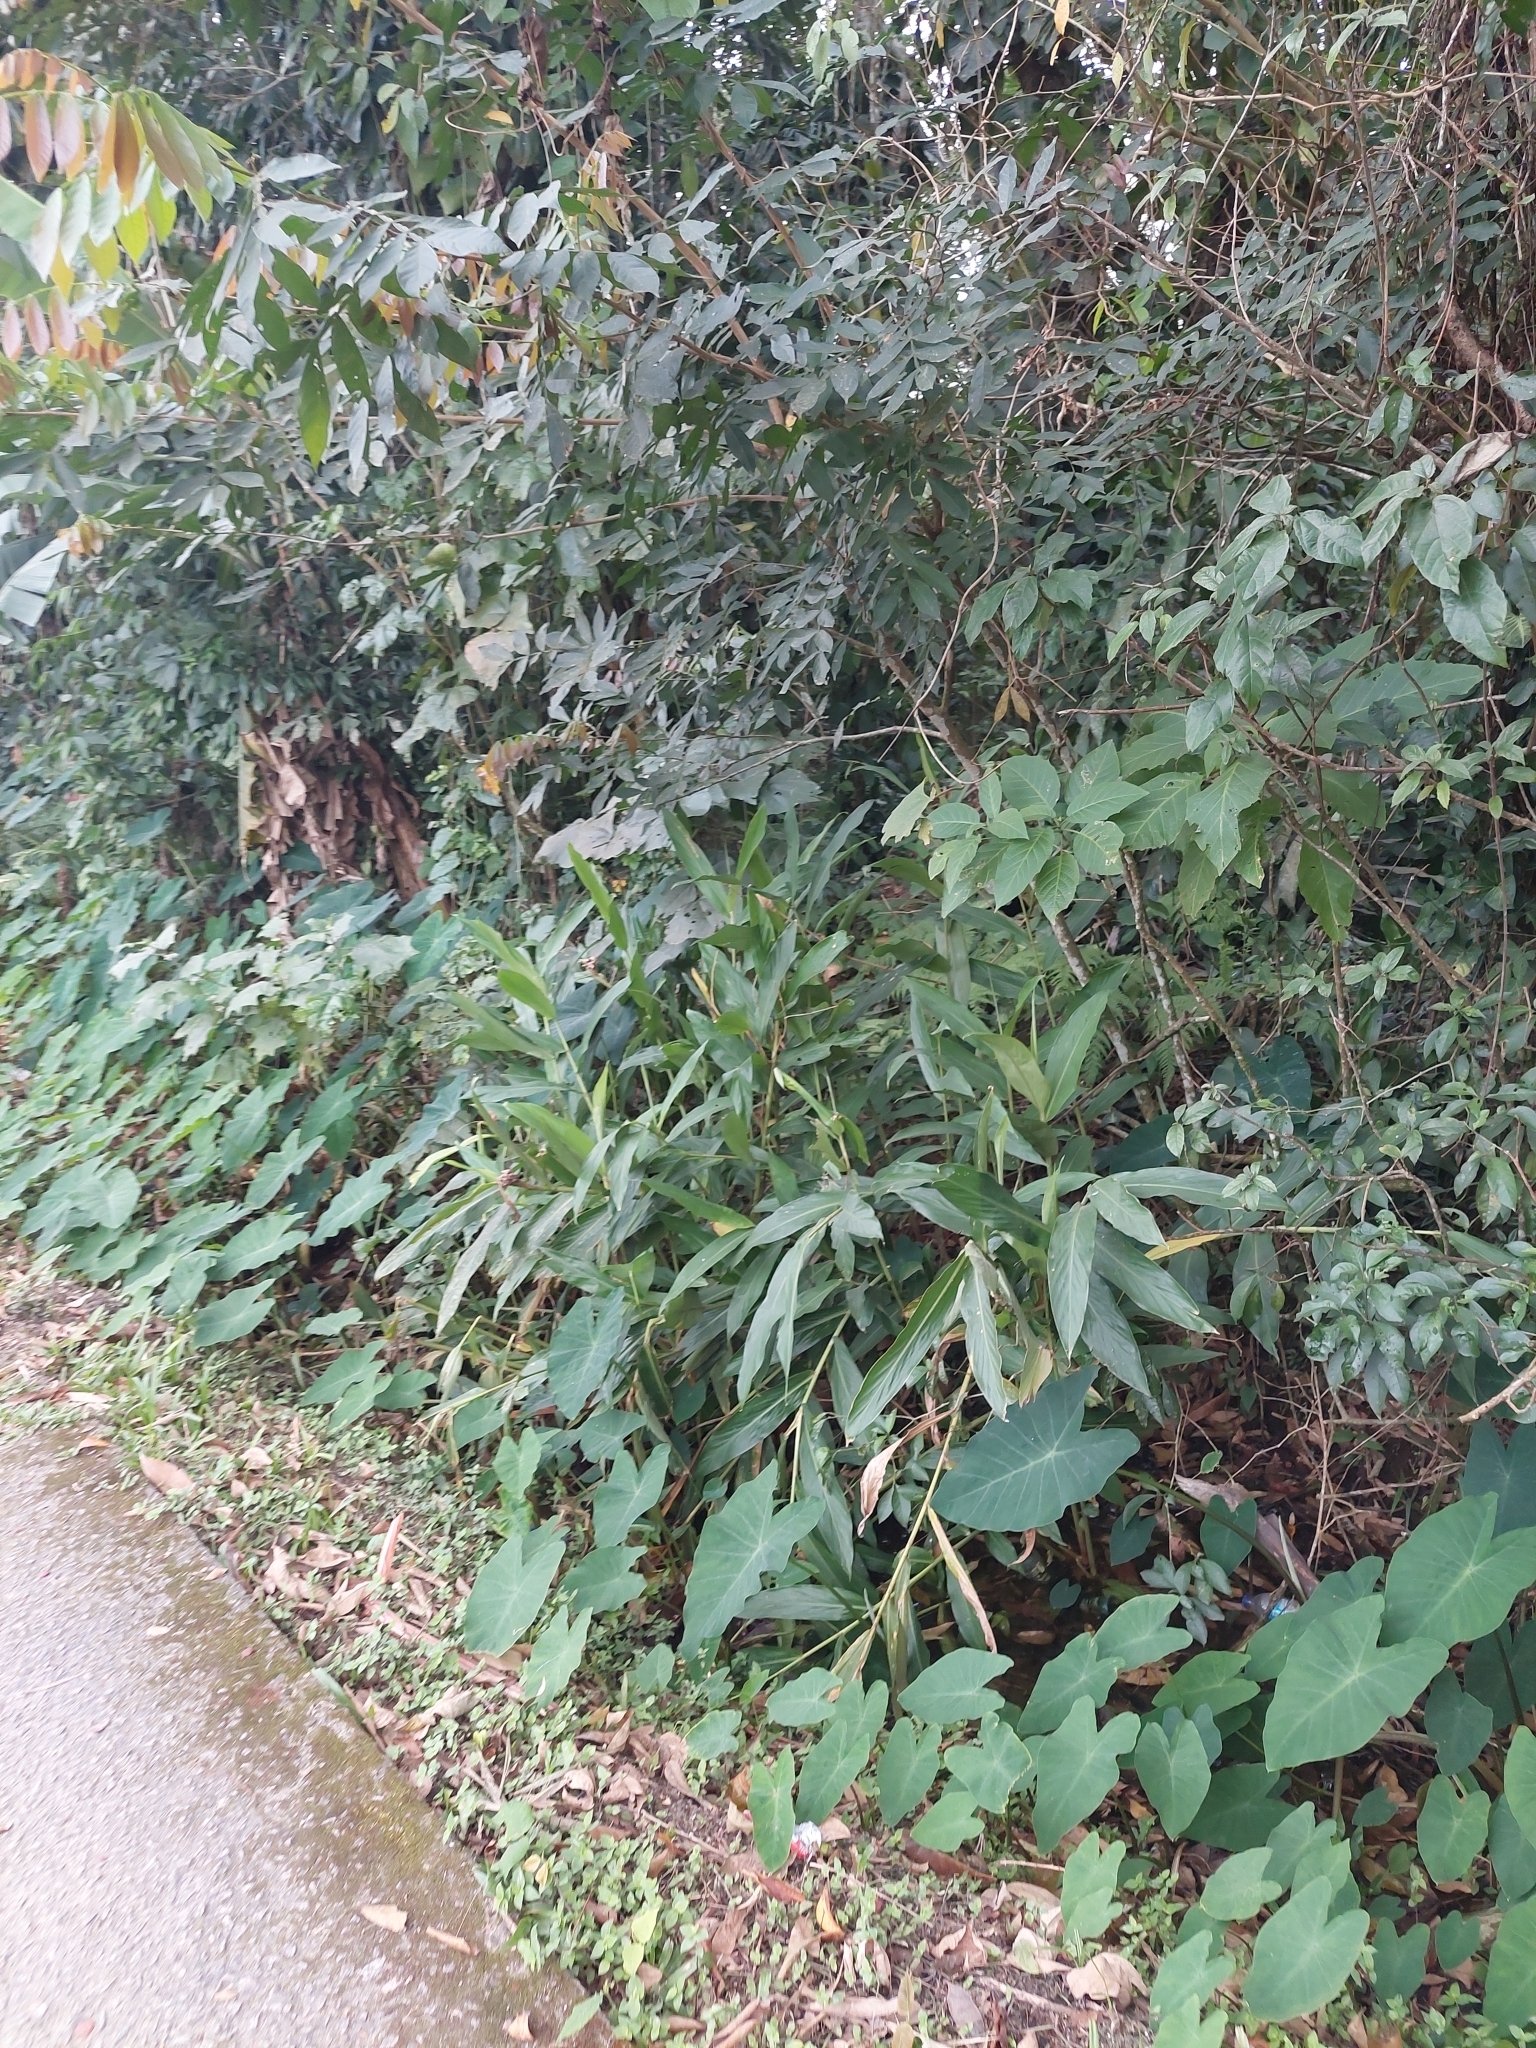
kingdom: Plantae
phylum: Tracheophyta
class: Liliopsida
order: Zingiberales
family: Zingiberaceae
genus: Hedychium
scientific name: Hedychium coronarium
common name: White garland-lily
